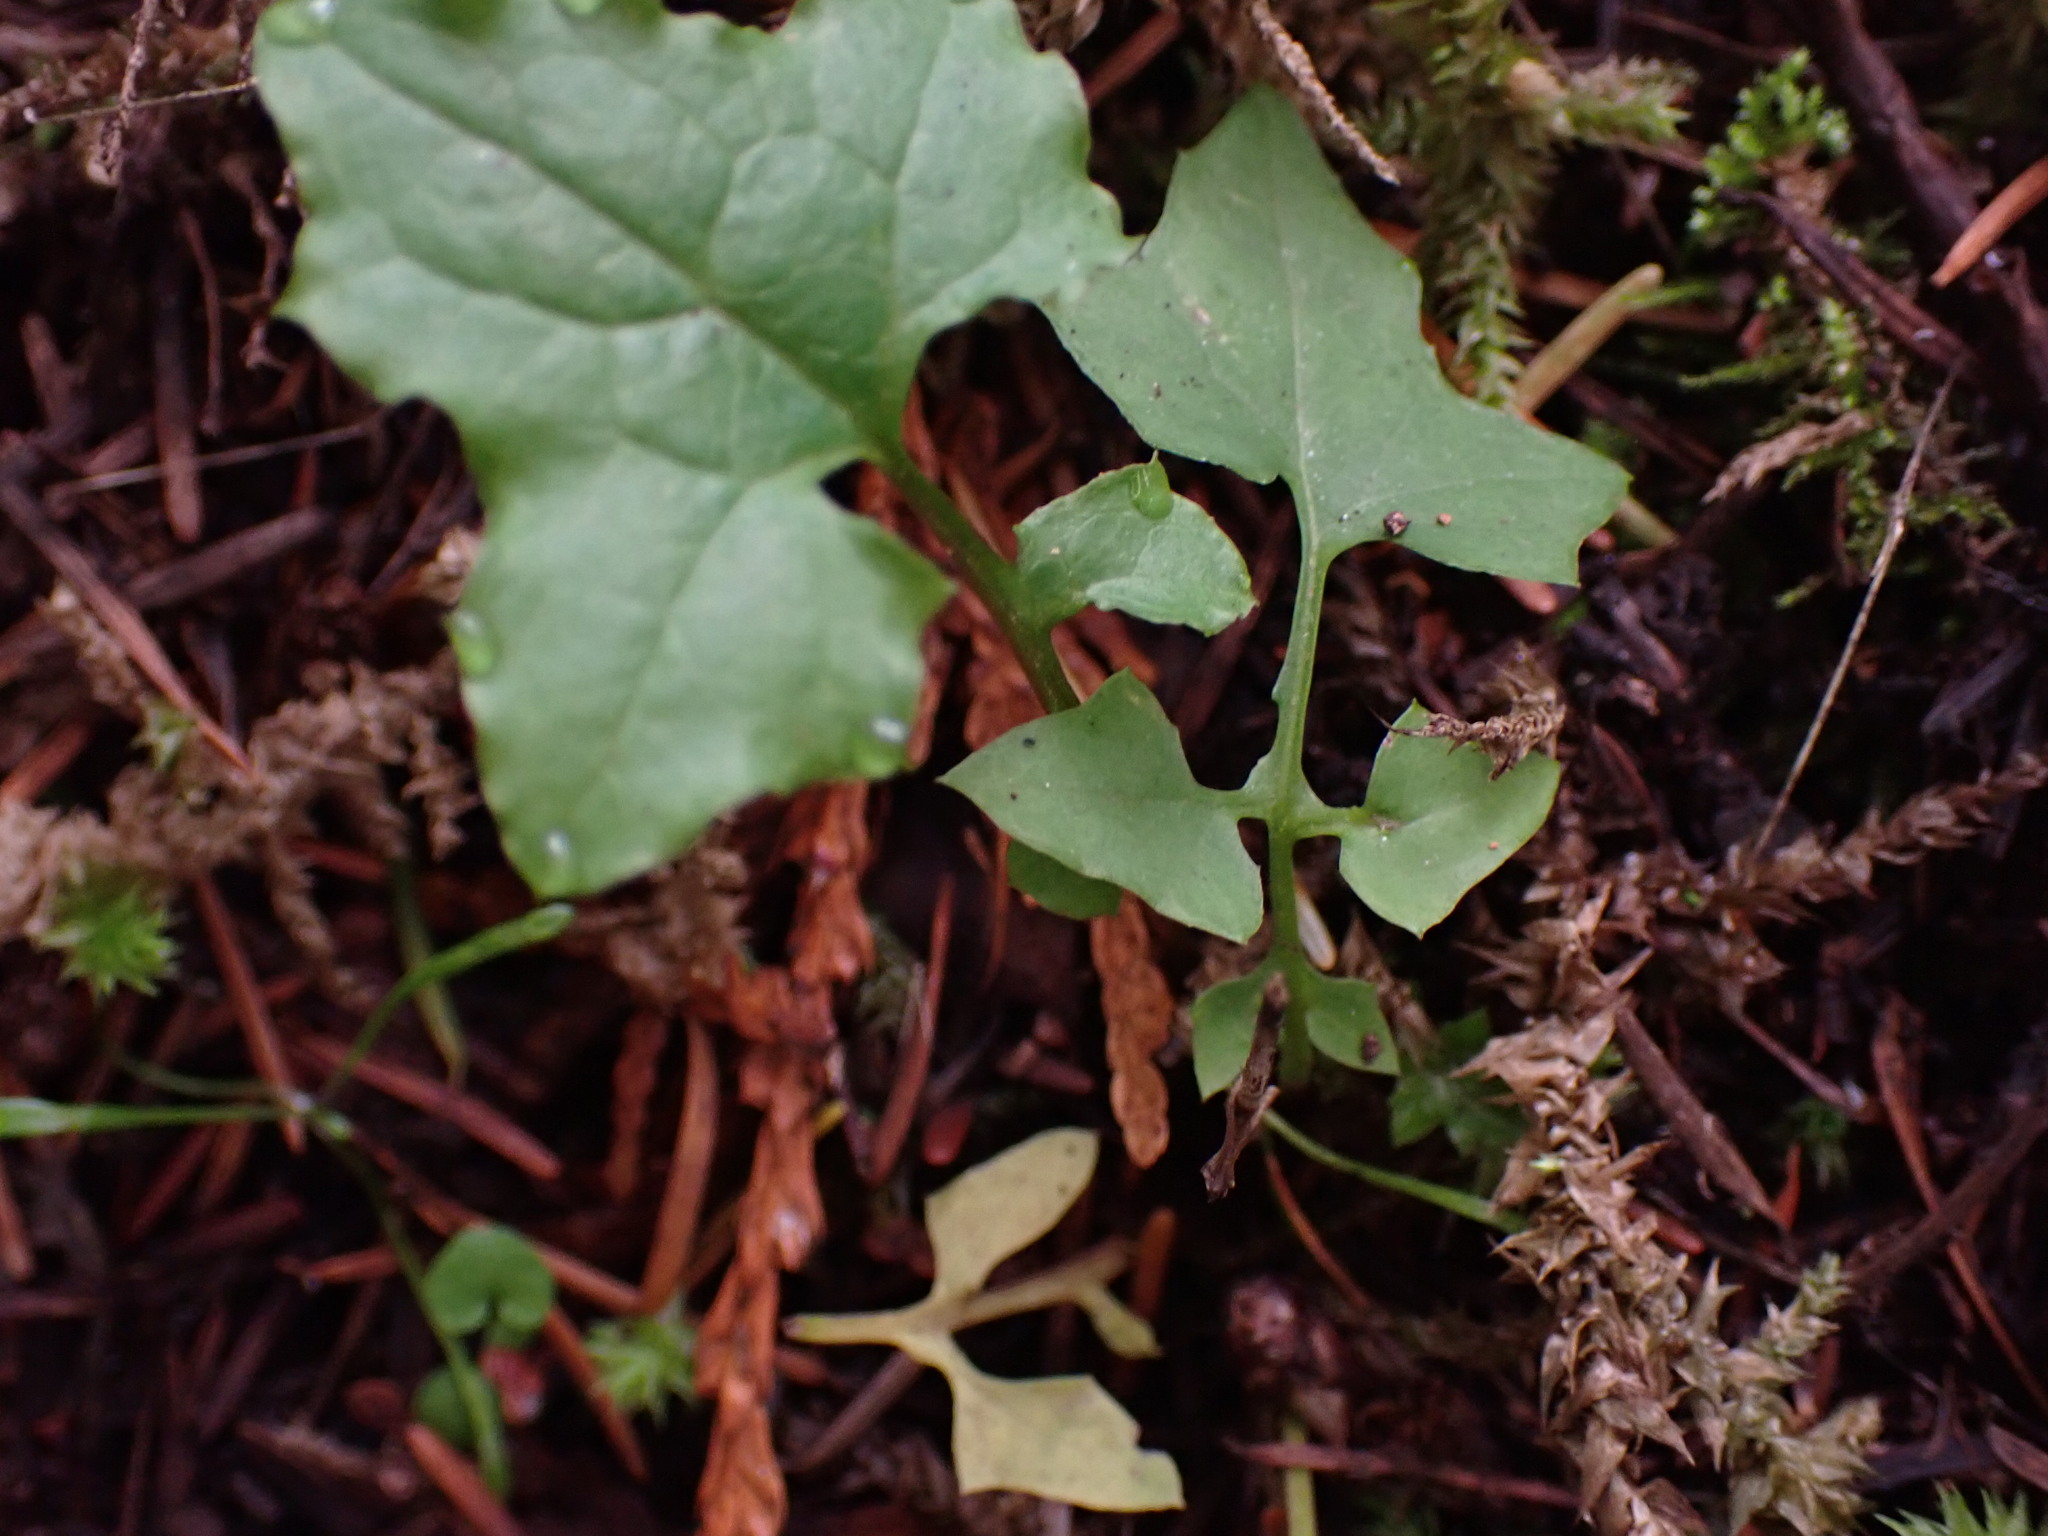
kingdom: Plantae
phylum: Tracheophyta
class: Magnoliopsida
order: Asterales
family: Asteraceae
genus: Mycelis
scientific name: Mycelis muralis
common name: Wall lettuce
